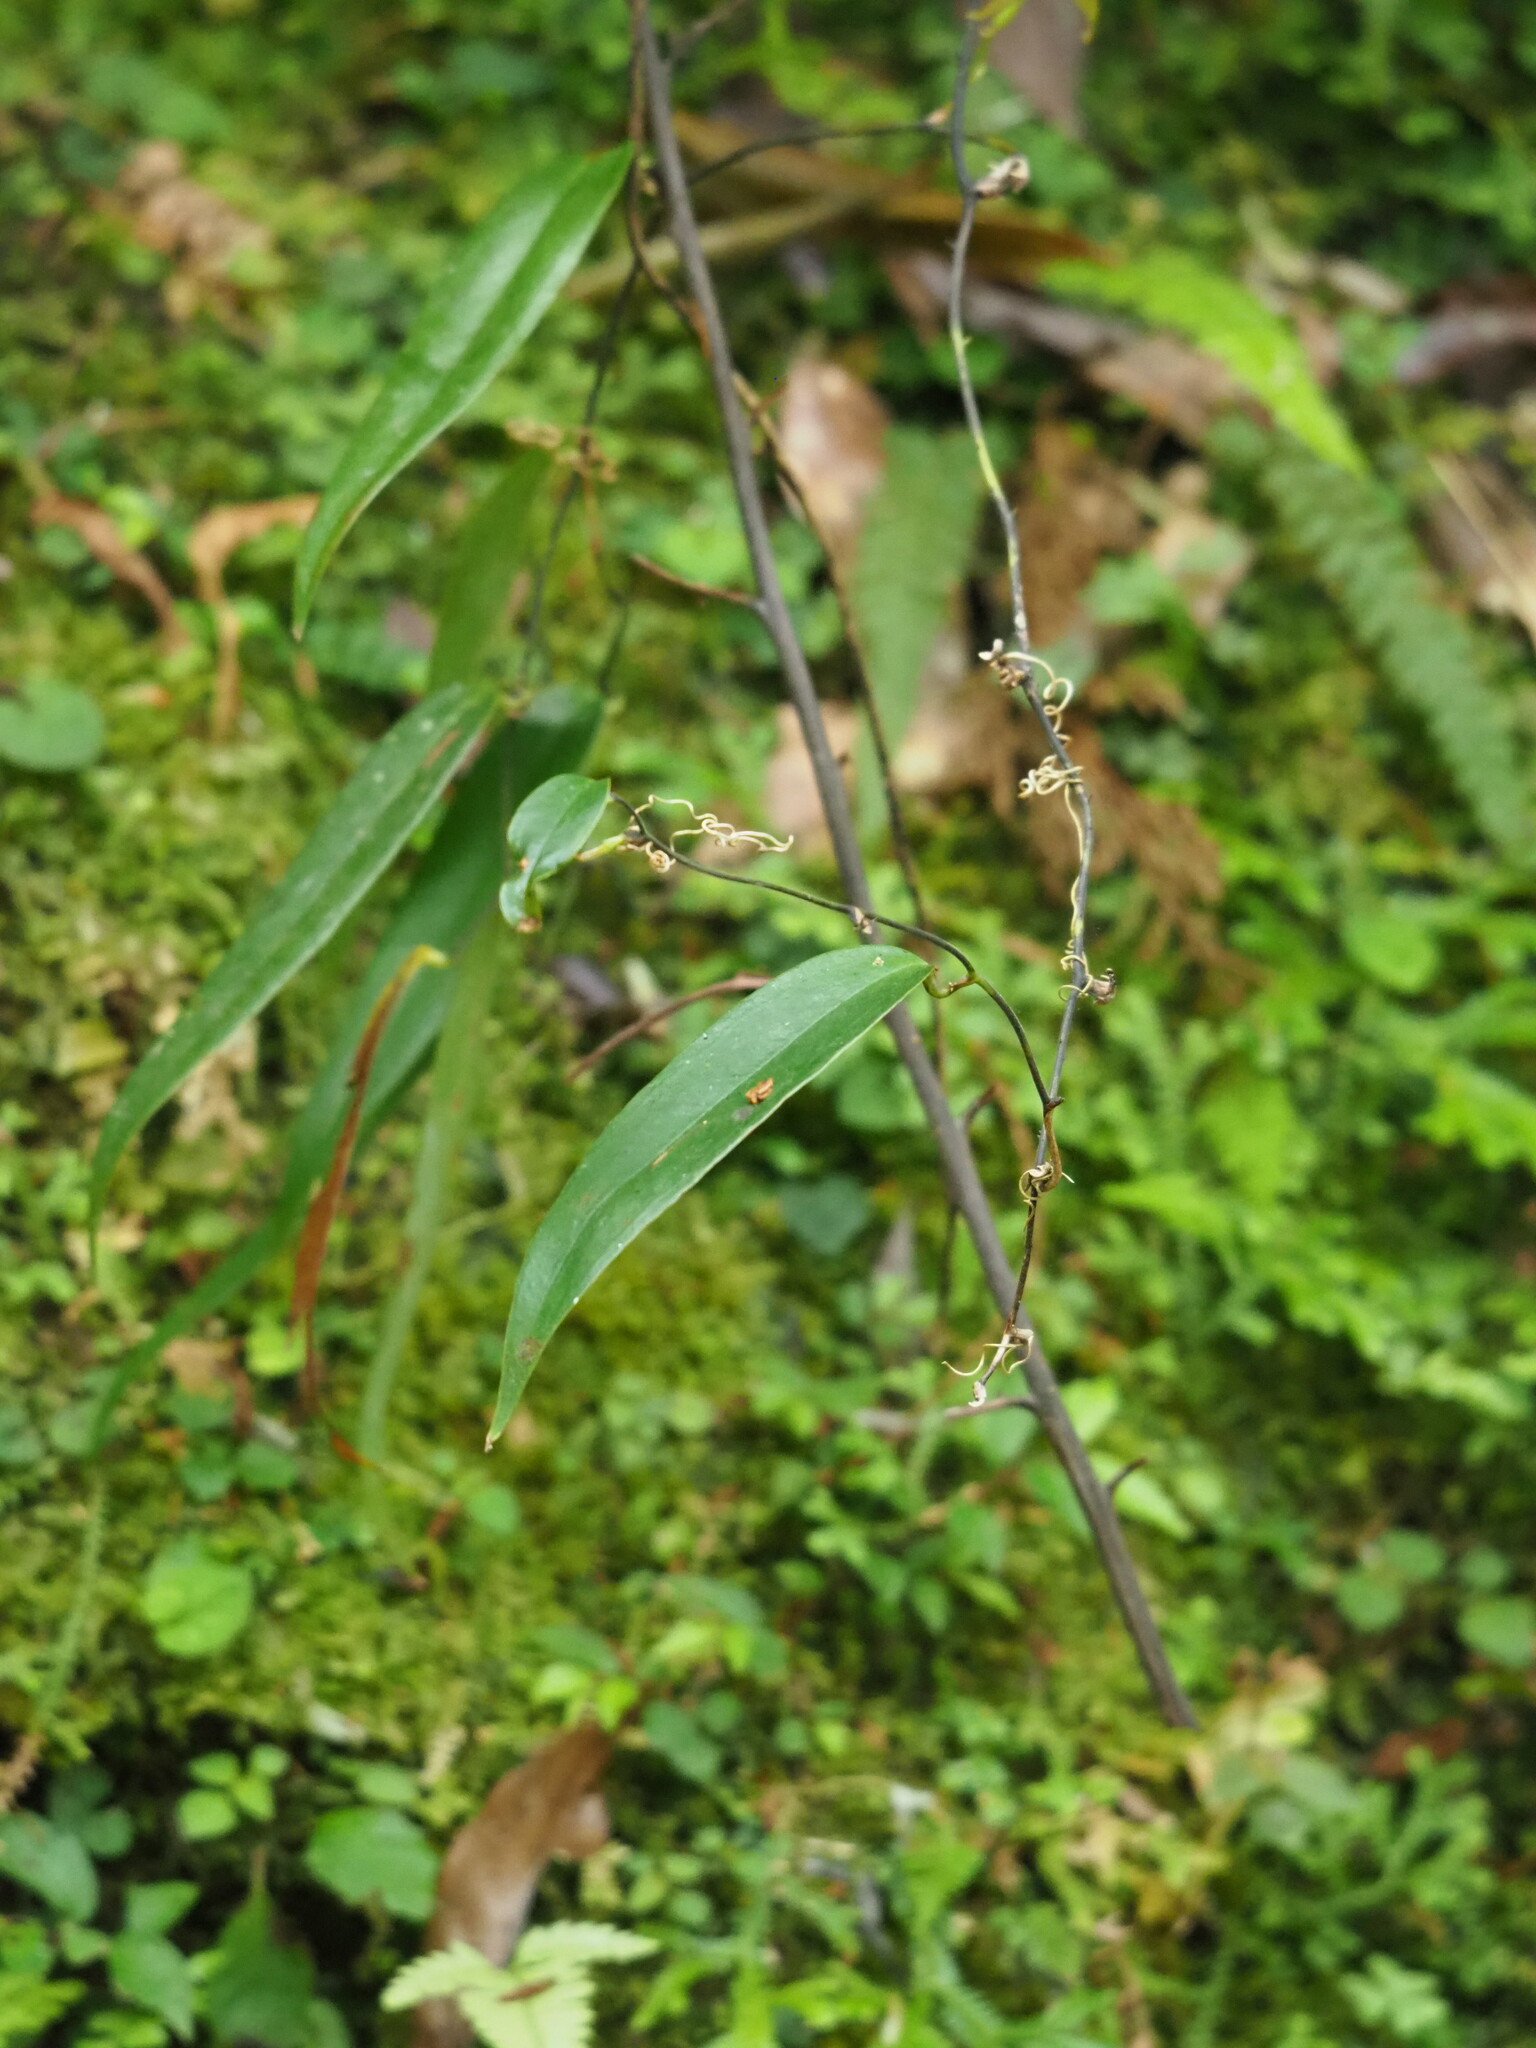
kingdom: Plantae
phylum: Tracheophyta
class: Liliopsida
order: Dioscoreales
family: Dioscoreaceae
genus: Dioscorea
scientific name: Dioscorea cirrhosa
